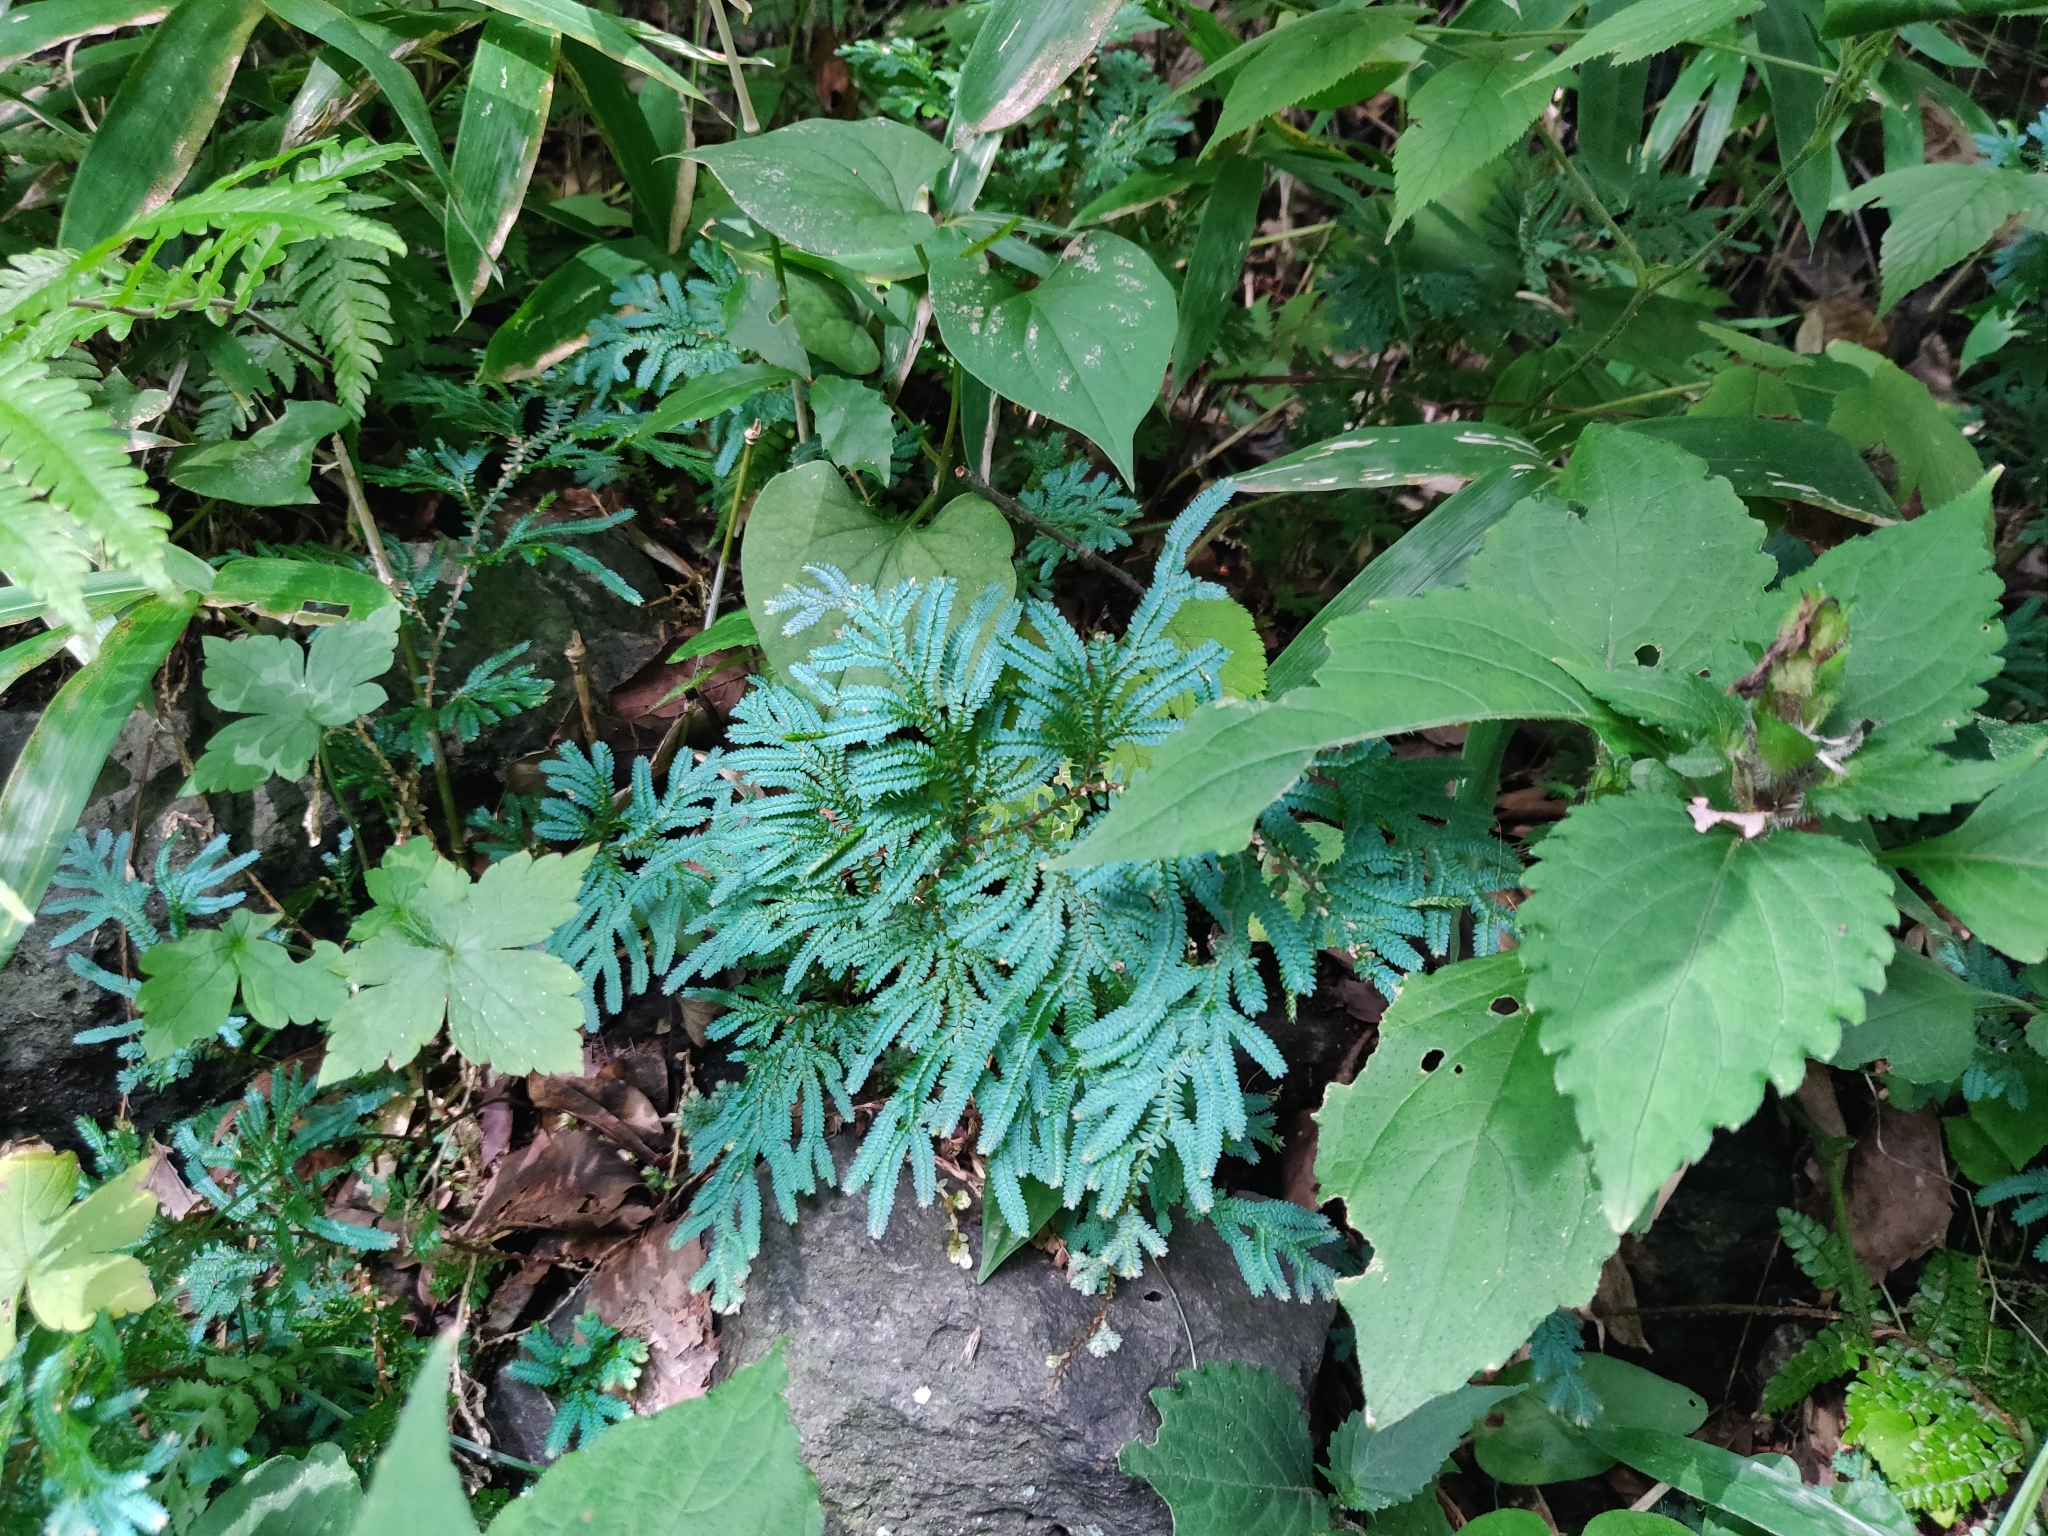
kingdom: Plantae
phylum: Tracheophyta
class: Lycopodiopsida
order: Selaginellales
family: Selaginellaceae
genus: Selaginella
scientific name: Selaginella uncinata
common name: Blue spikemoss
